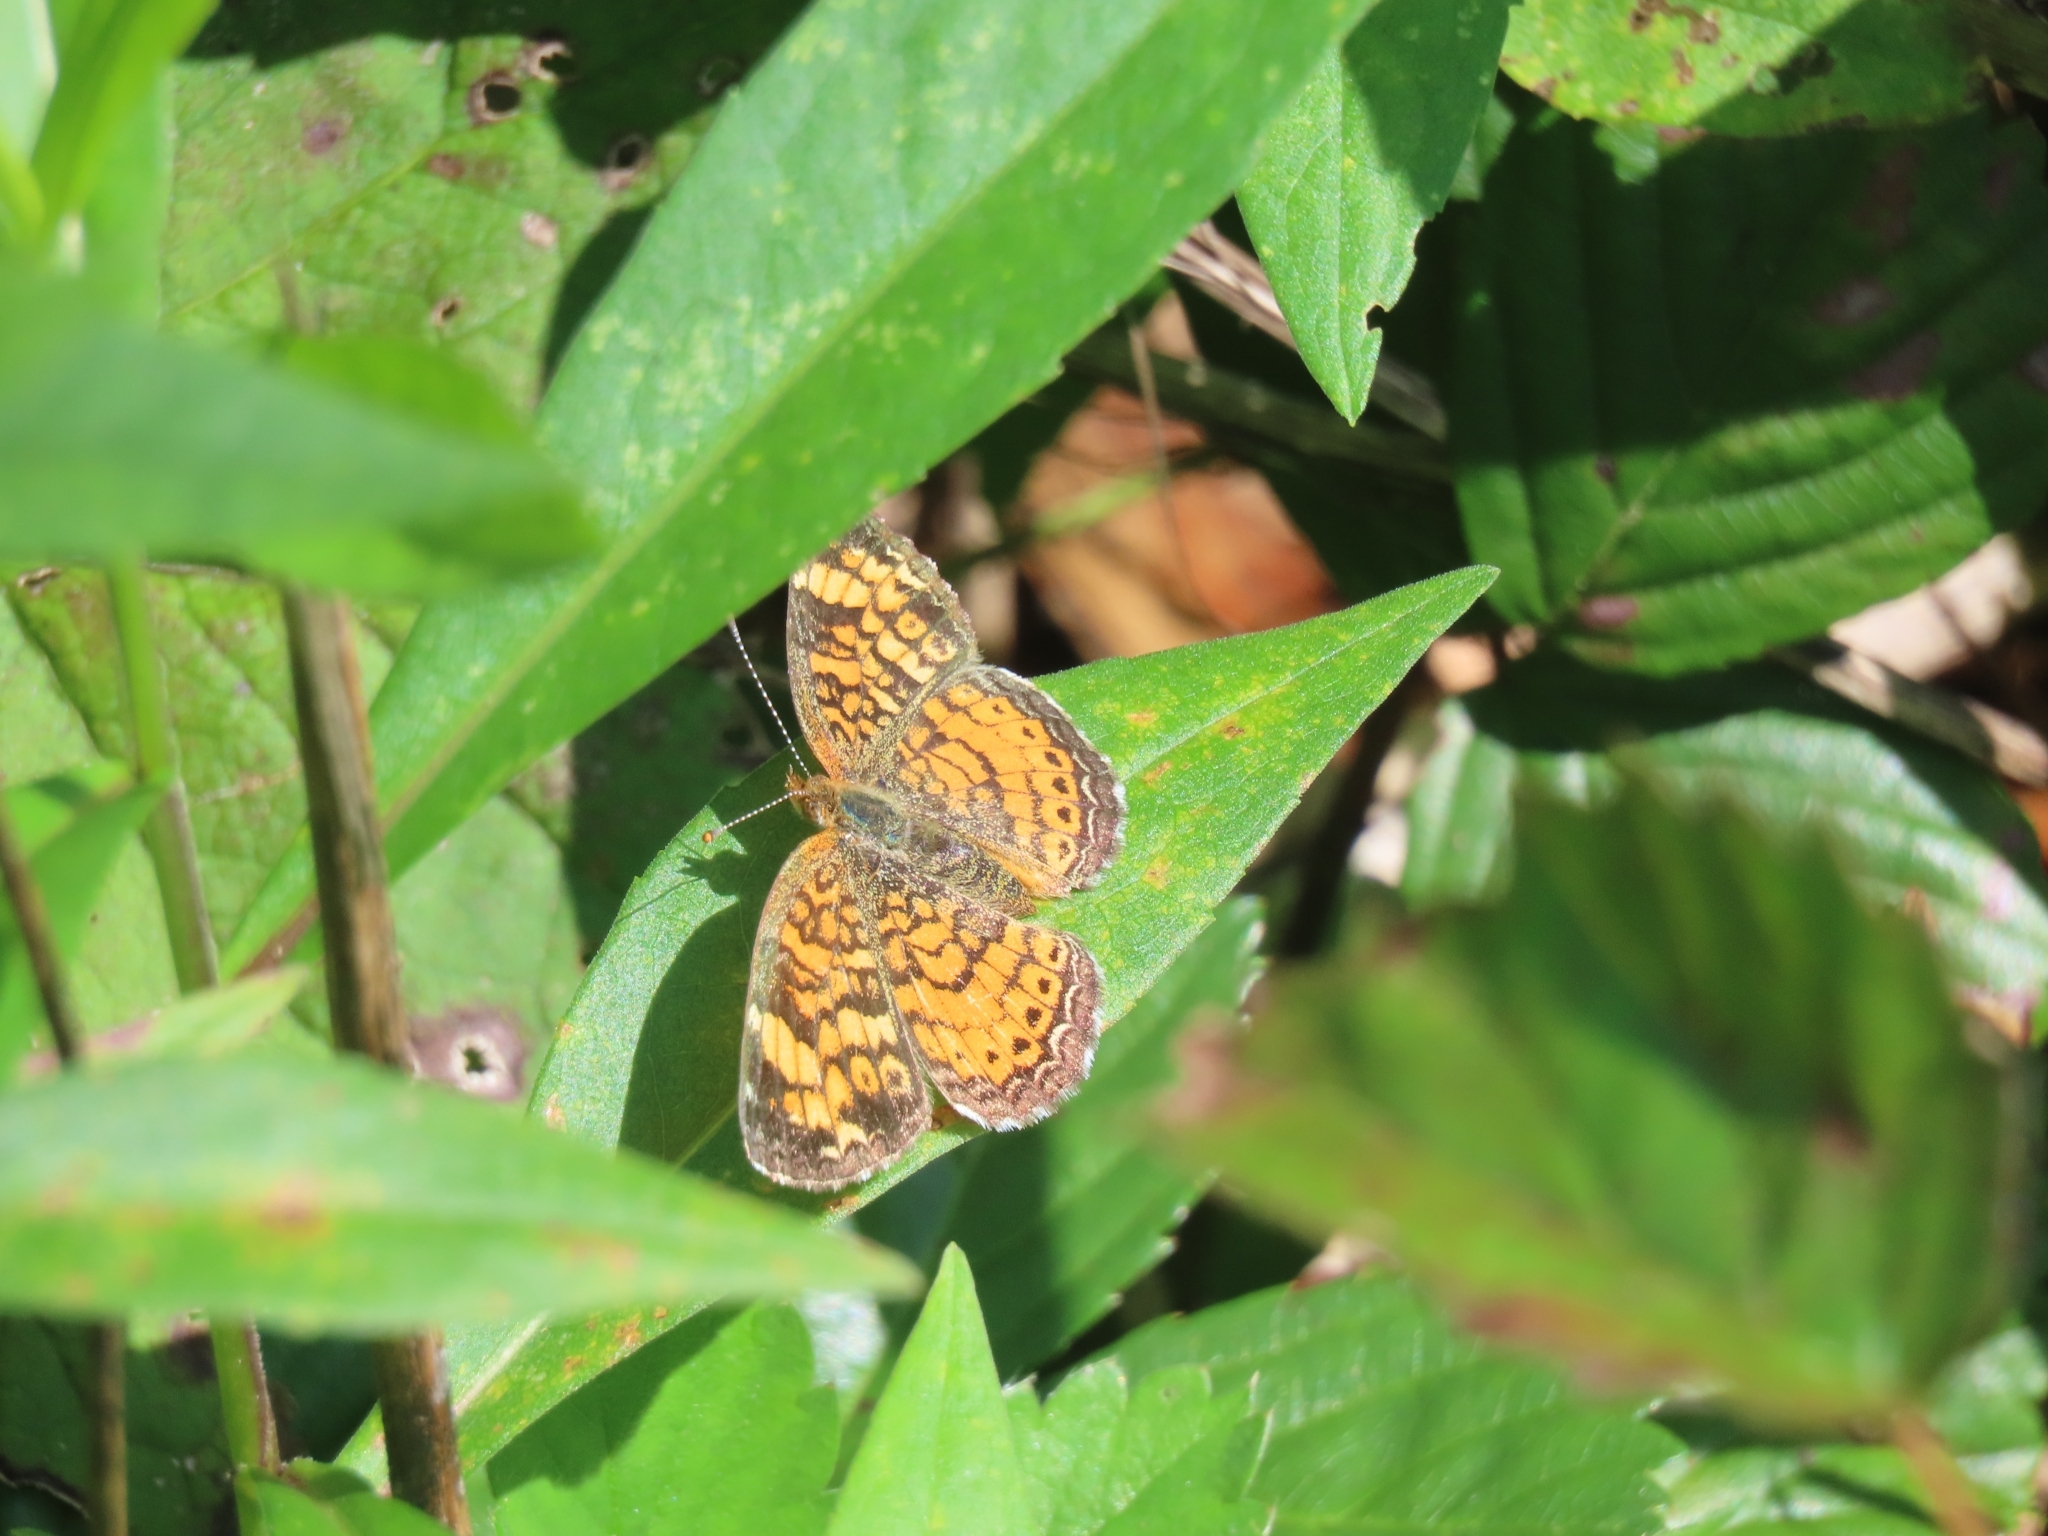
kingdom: Animalia
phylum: Arthropoda
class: Insecta
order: Lepidoptera
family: Nymphalidae
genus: Phyciodes
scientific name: Phyciodes tharos
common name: Pearl crescent
